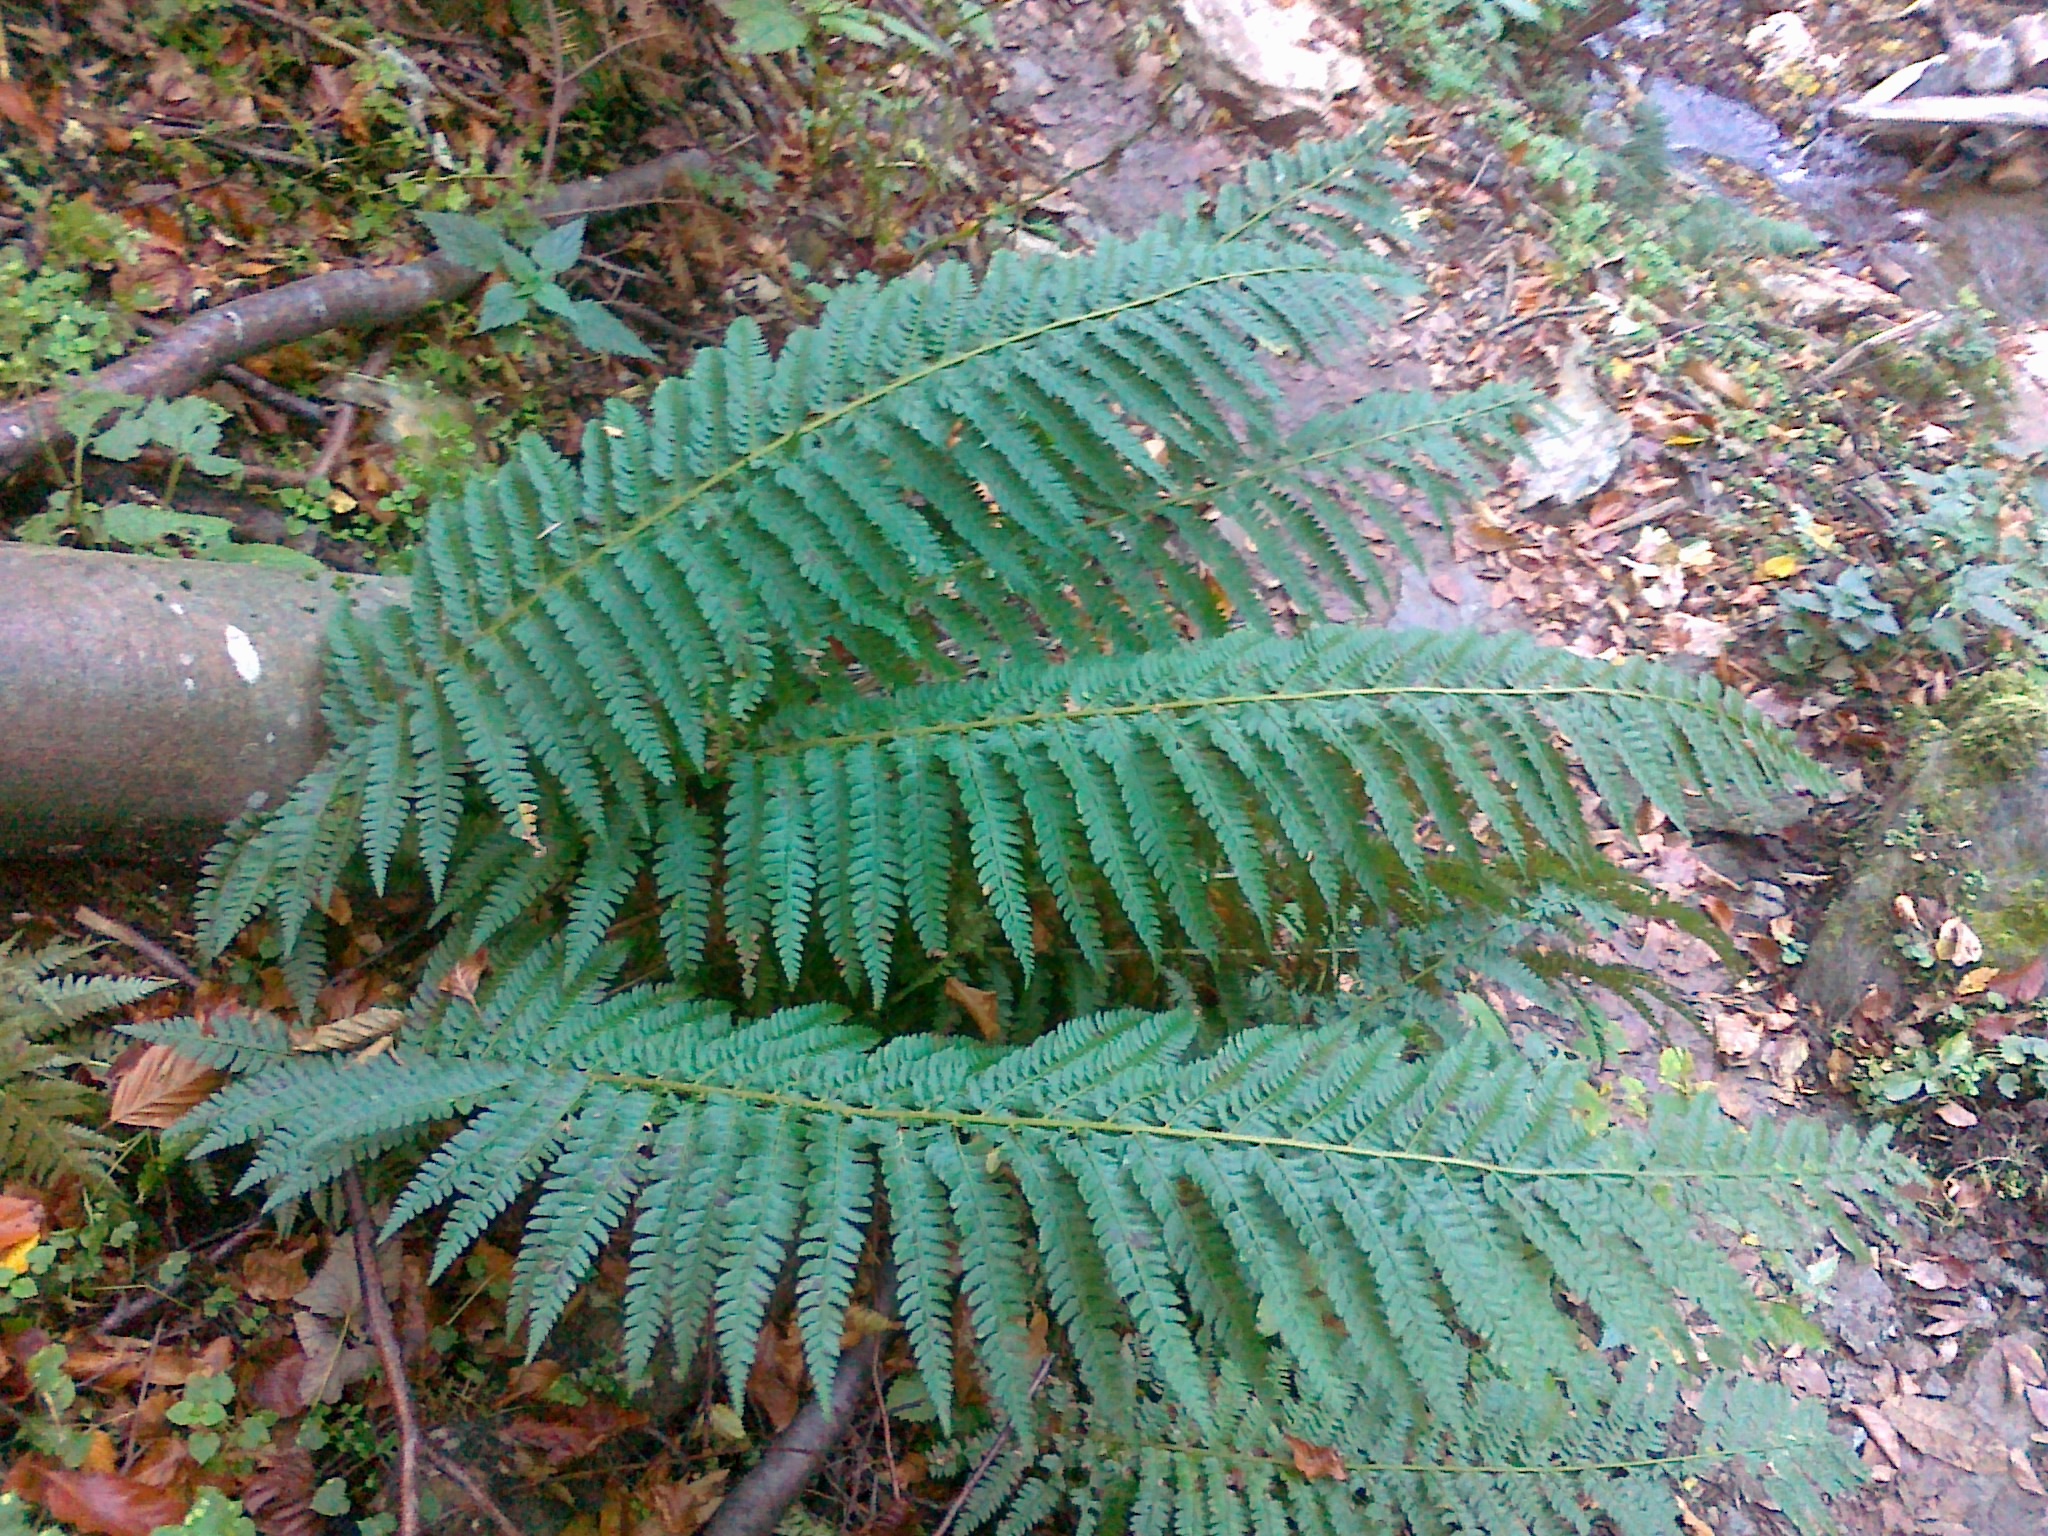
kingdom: Plantae
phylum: Tracheophyta
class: Polypodiopsida
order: Polypodiales
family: Dryopteridaceae
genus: Polystichum
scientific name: Polystichum setiferum
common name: Soft shield-fern
